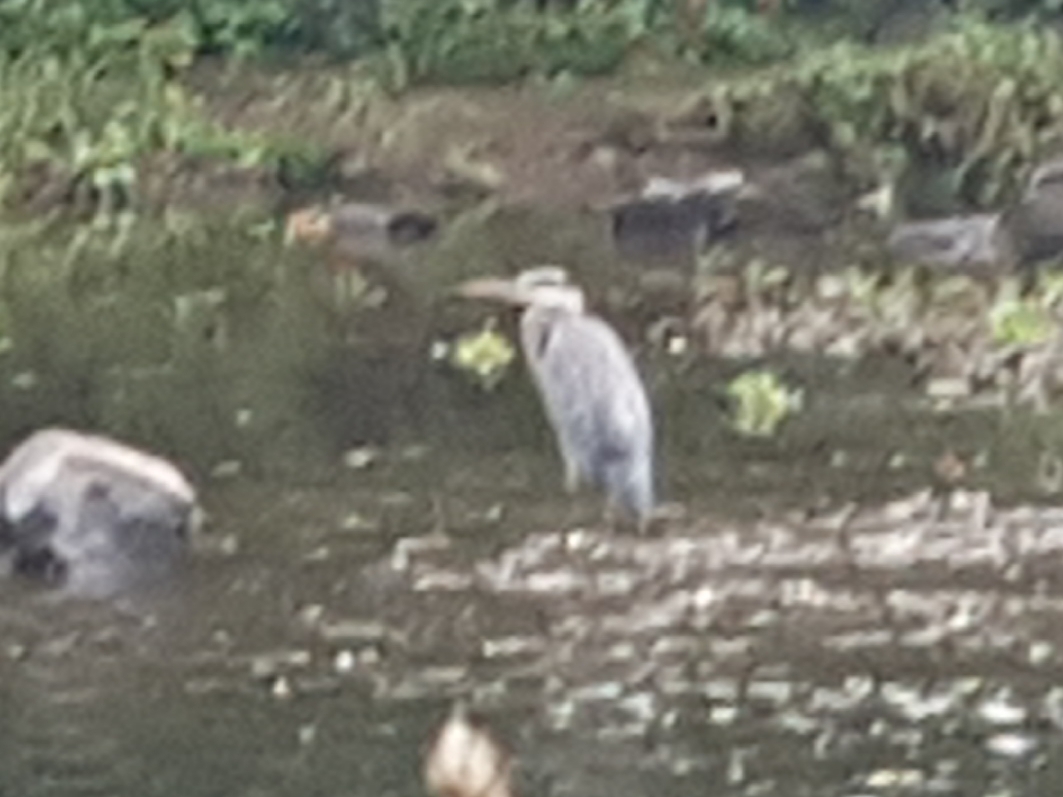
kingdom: Animalia
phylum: Chordata
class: Aves
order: Pelecaniformes
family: Ardeidae
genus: Ardea
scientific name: Ardea cinerea
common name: Grey heron
